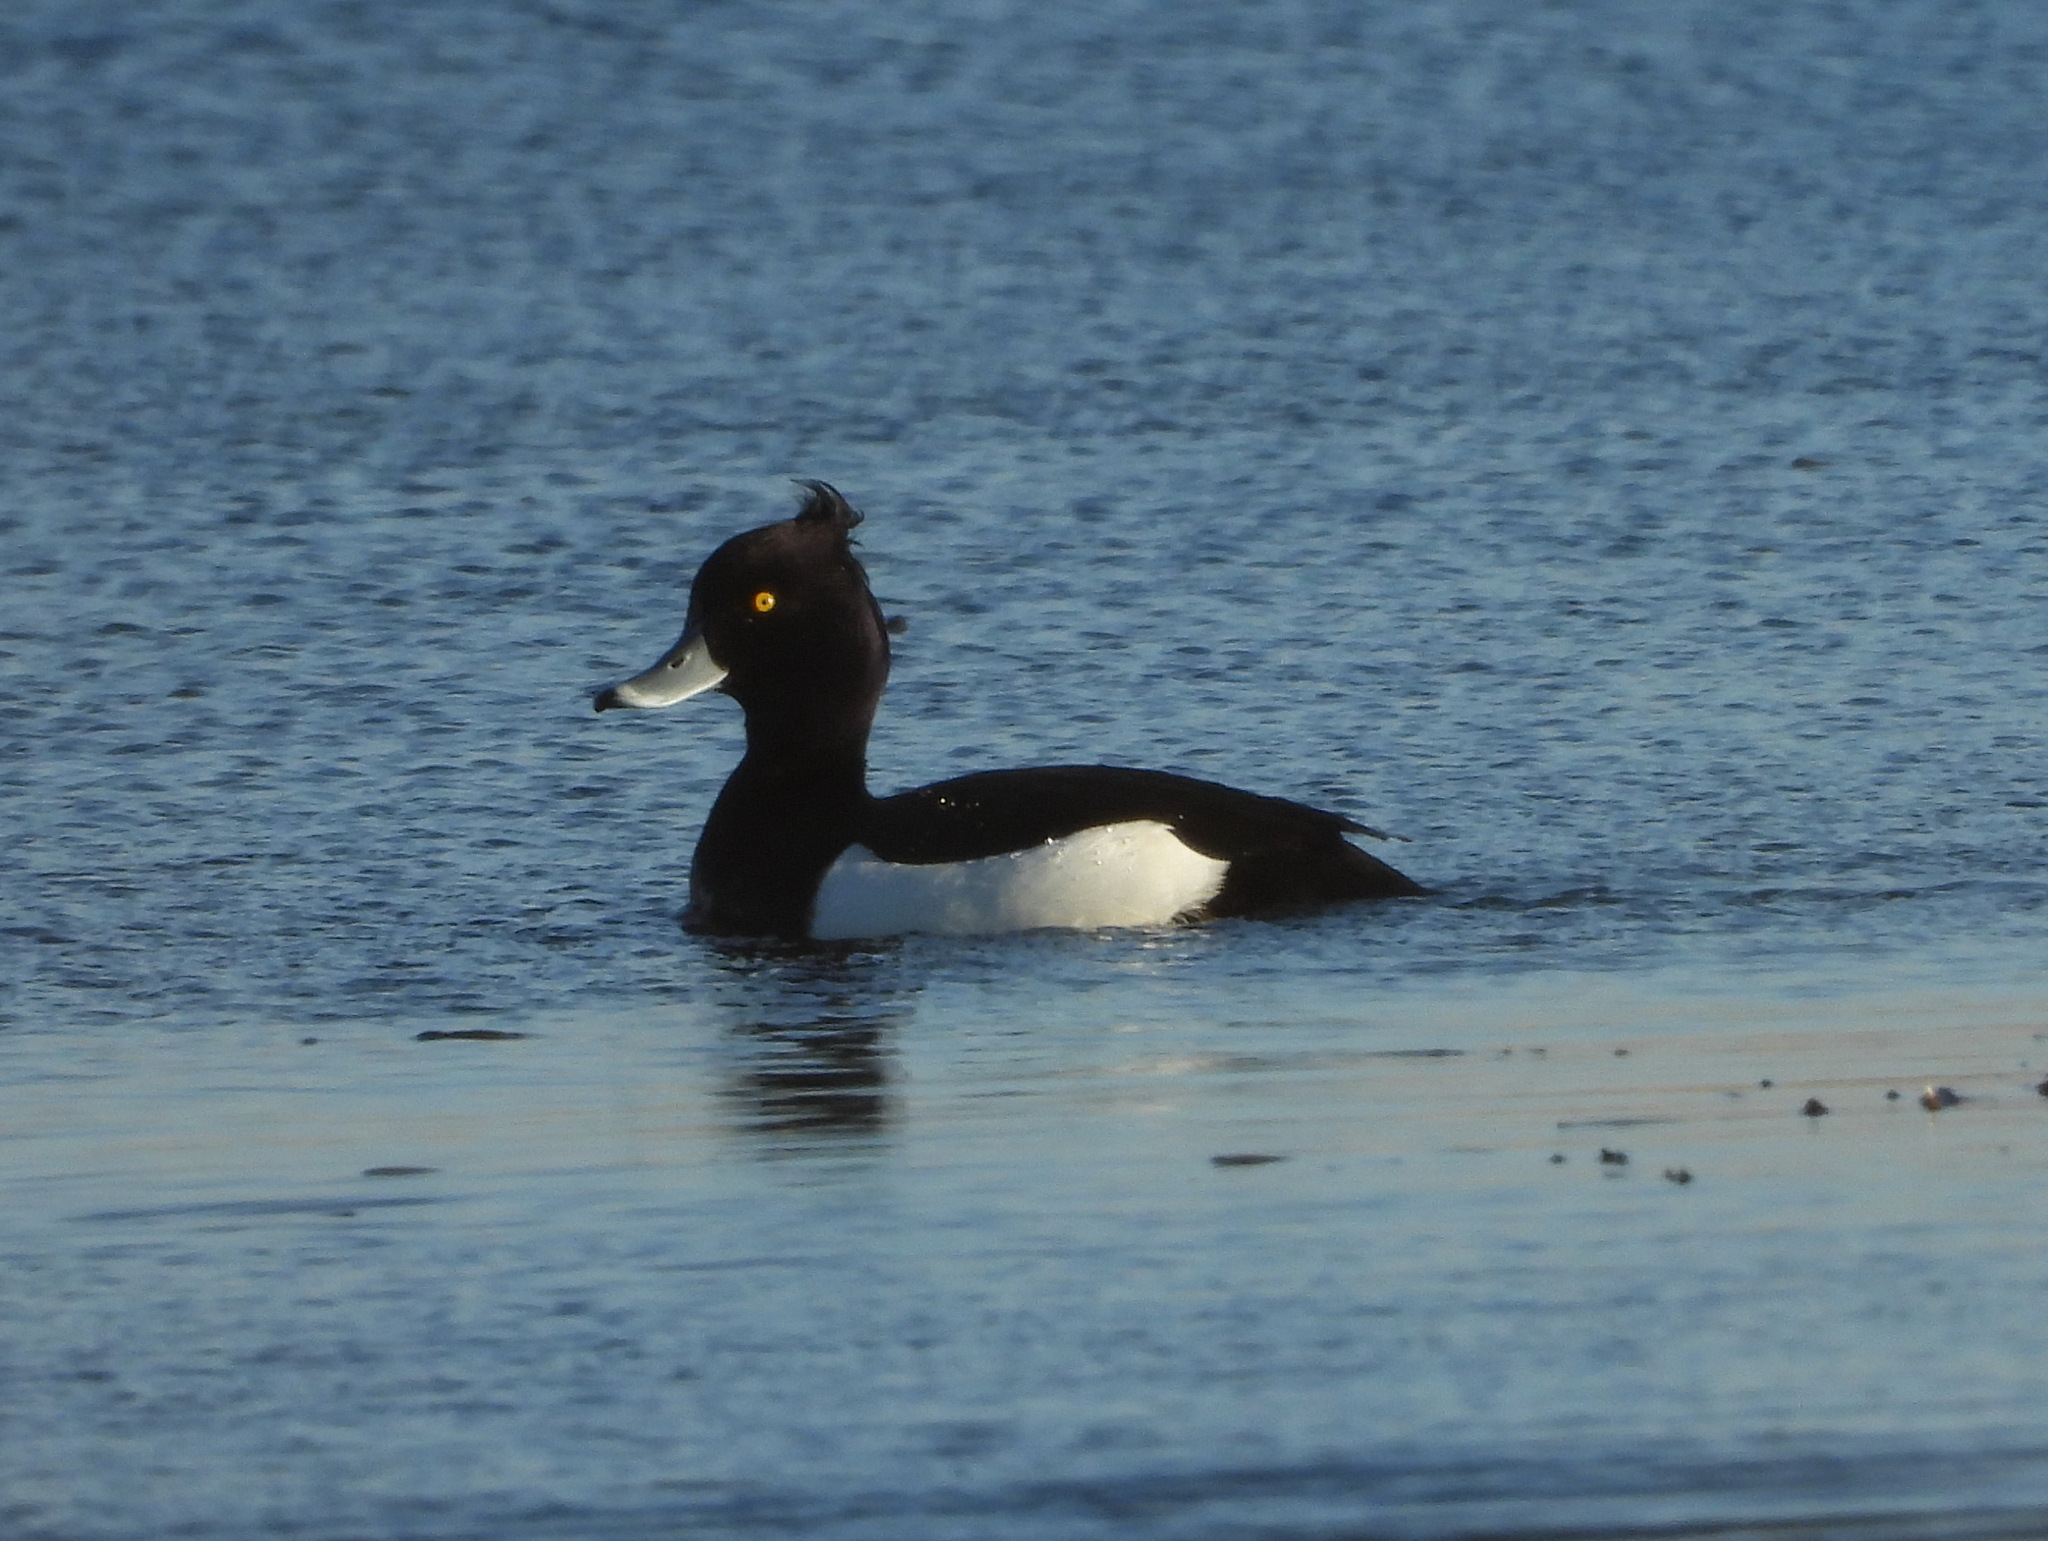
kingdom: Animalia
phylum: Chordata
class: Aves
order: Anseriformes
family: Anatidae
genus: Aythya
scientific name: Aythya fuligula
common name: Tufted duck
